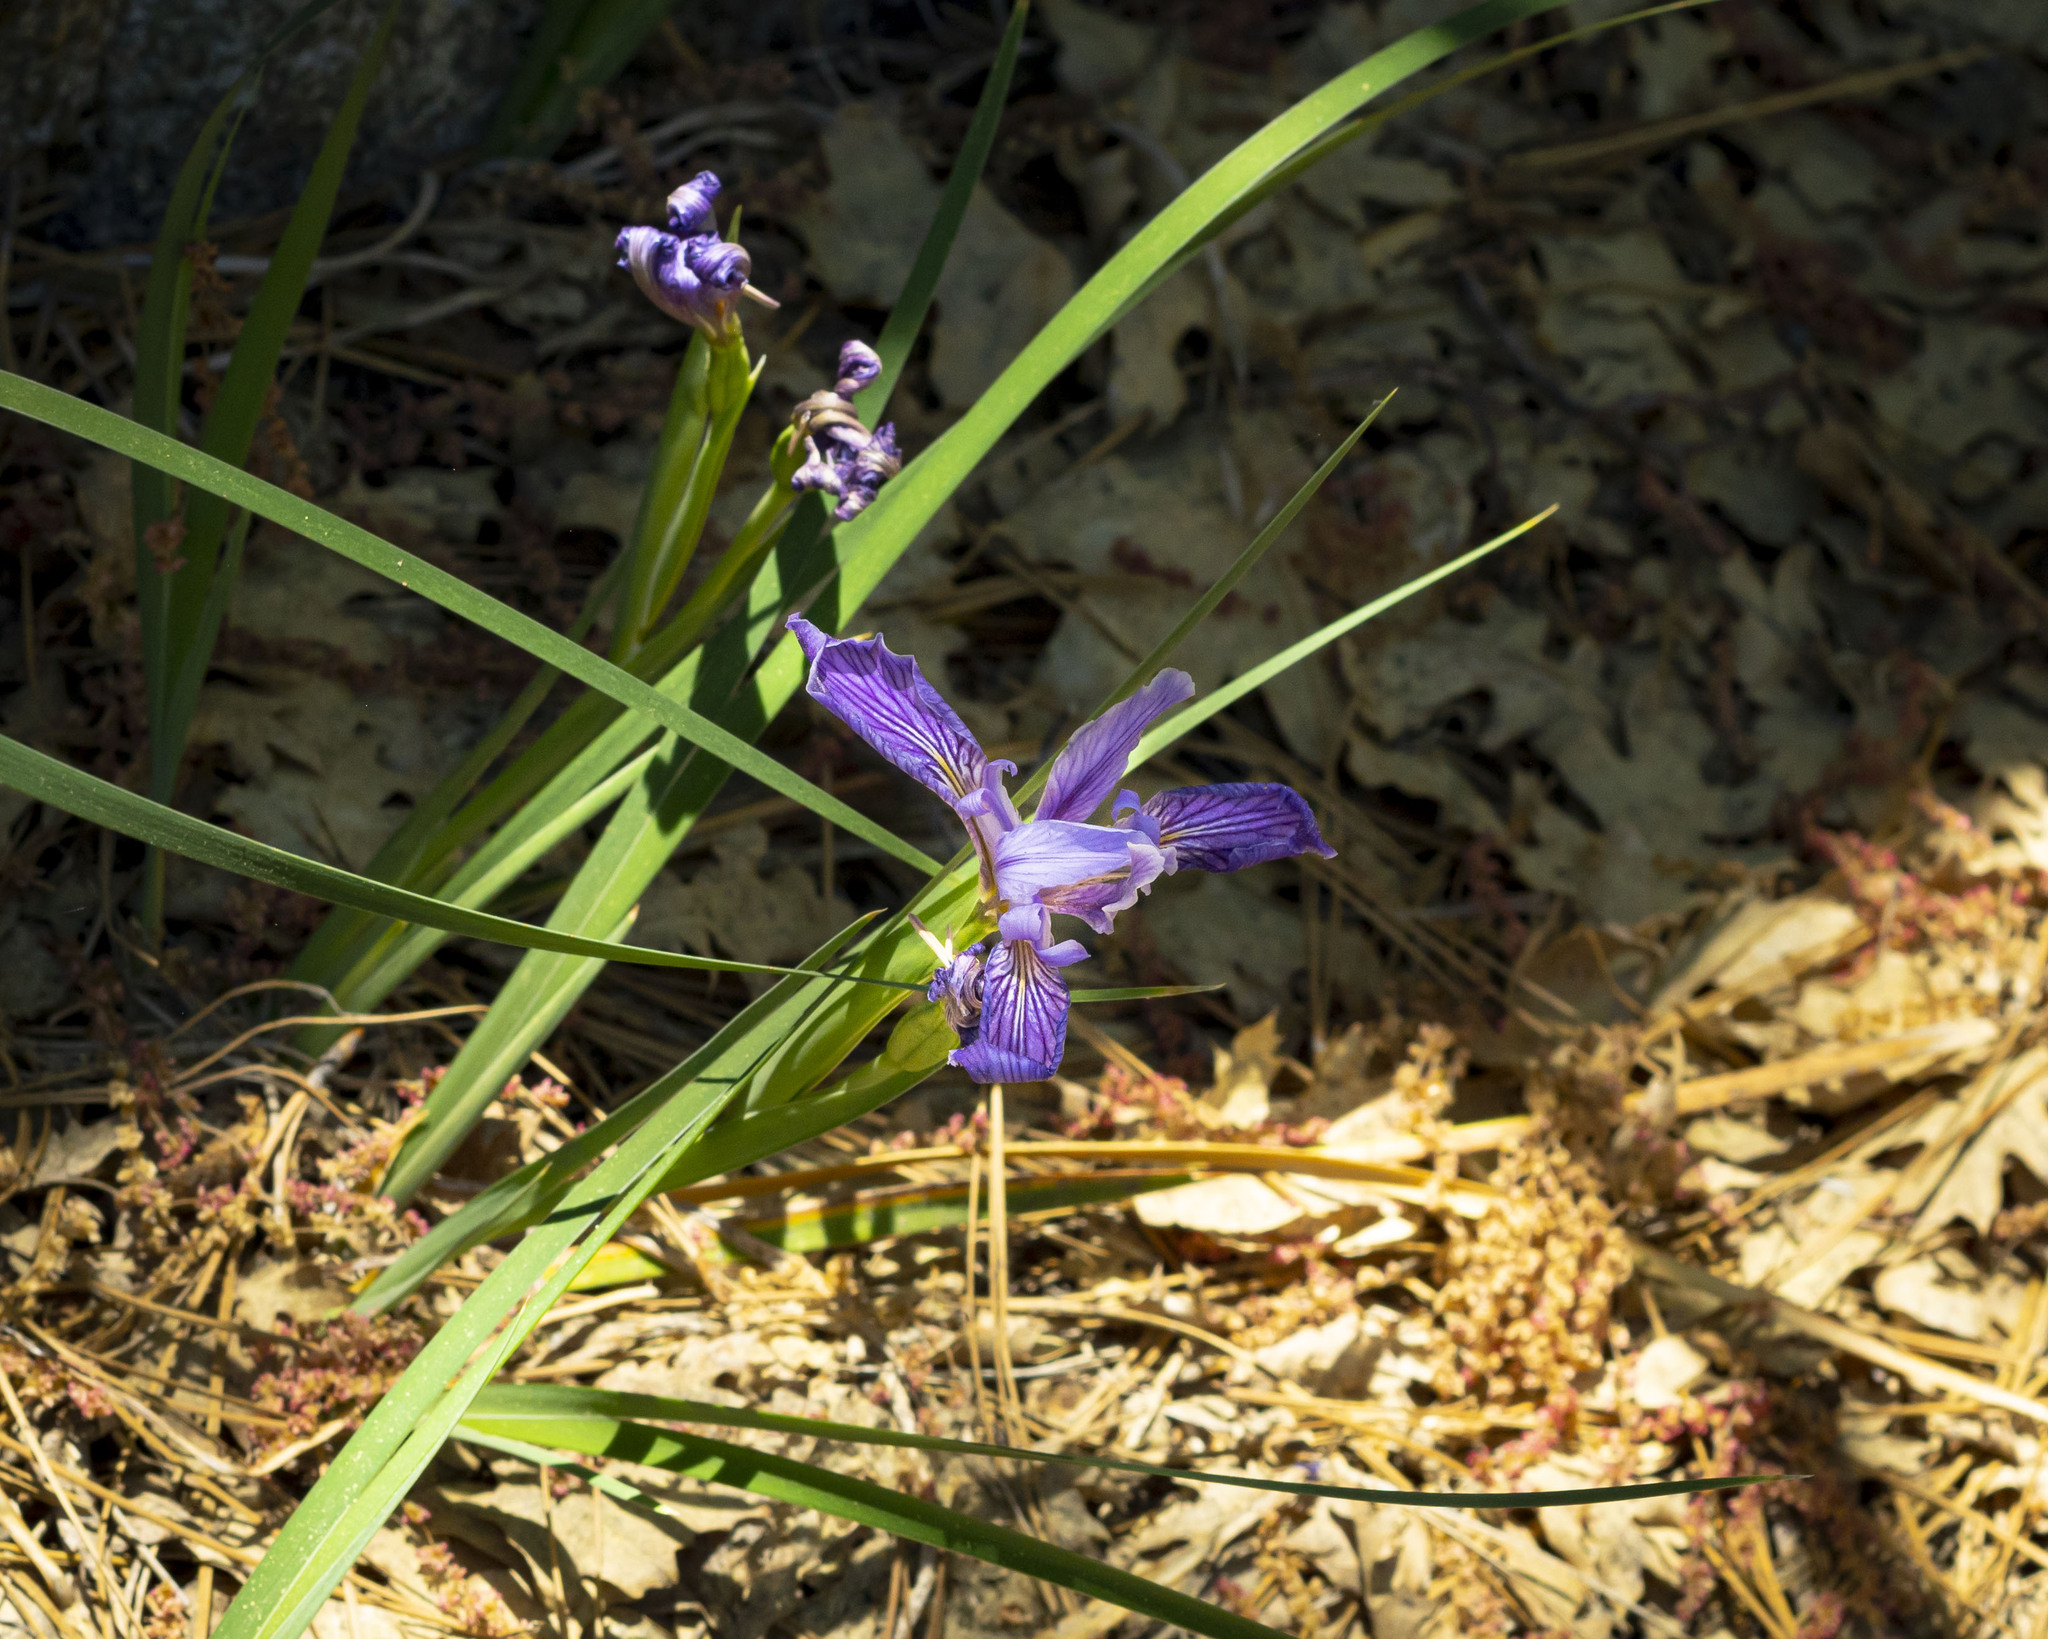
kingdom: Plantae
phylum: Tracheophyta
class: Liliopsida
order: Asparagales
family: Iridaceae
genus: Iris
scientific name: Iris hartwegii
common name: Sierra iris
